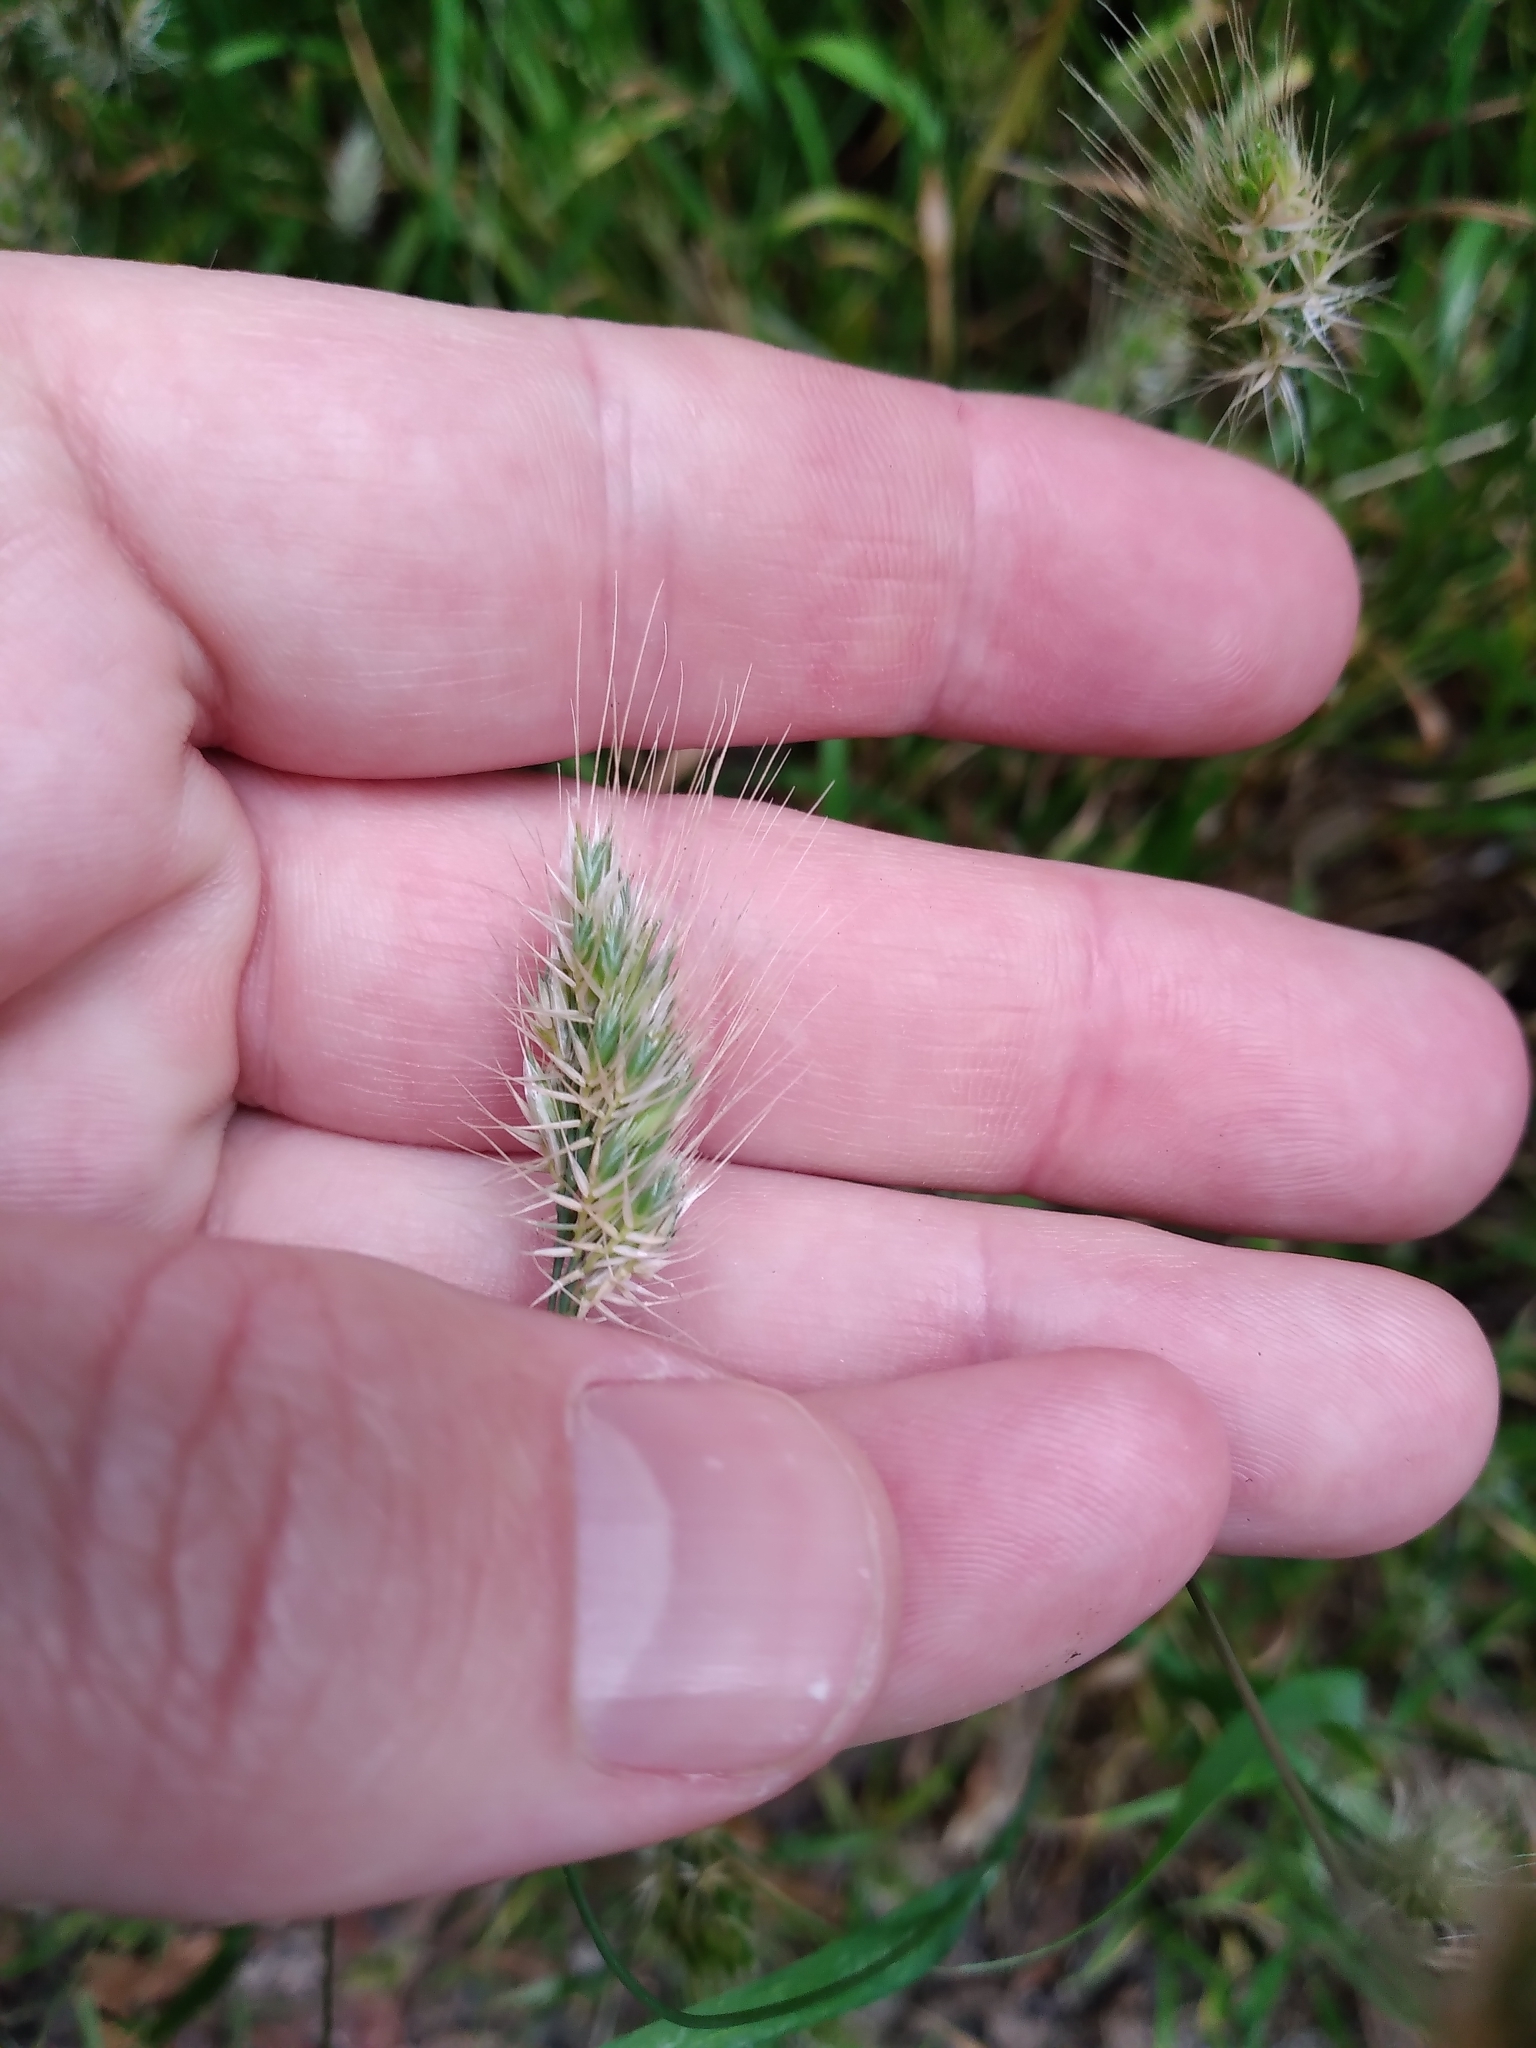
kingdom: Plantae
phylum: Tracheophyta
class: Liliopsida
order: Poales
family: Poaceae
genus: Cynosurus
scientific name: Cynosurus echinatus
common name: Rough dog's-tail
